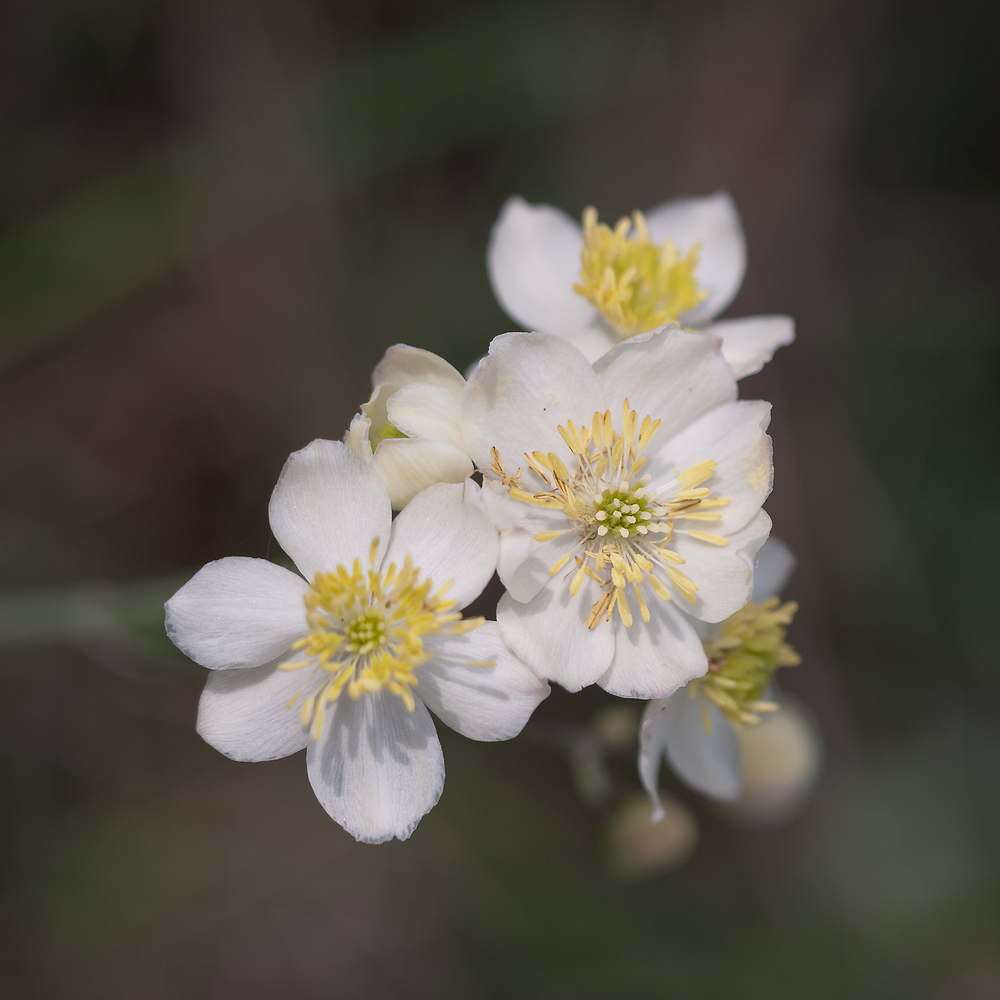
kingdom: Plantae
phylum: Tracheophyta
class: Magnoliopsida
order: Ranunculales
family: Ranunculaceae
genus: Thalictrum
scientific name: Thalictrum tuberosum
